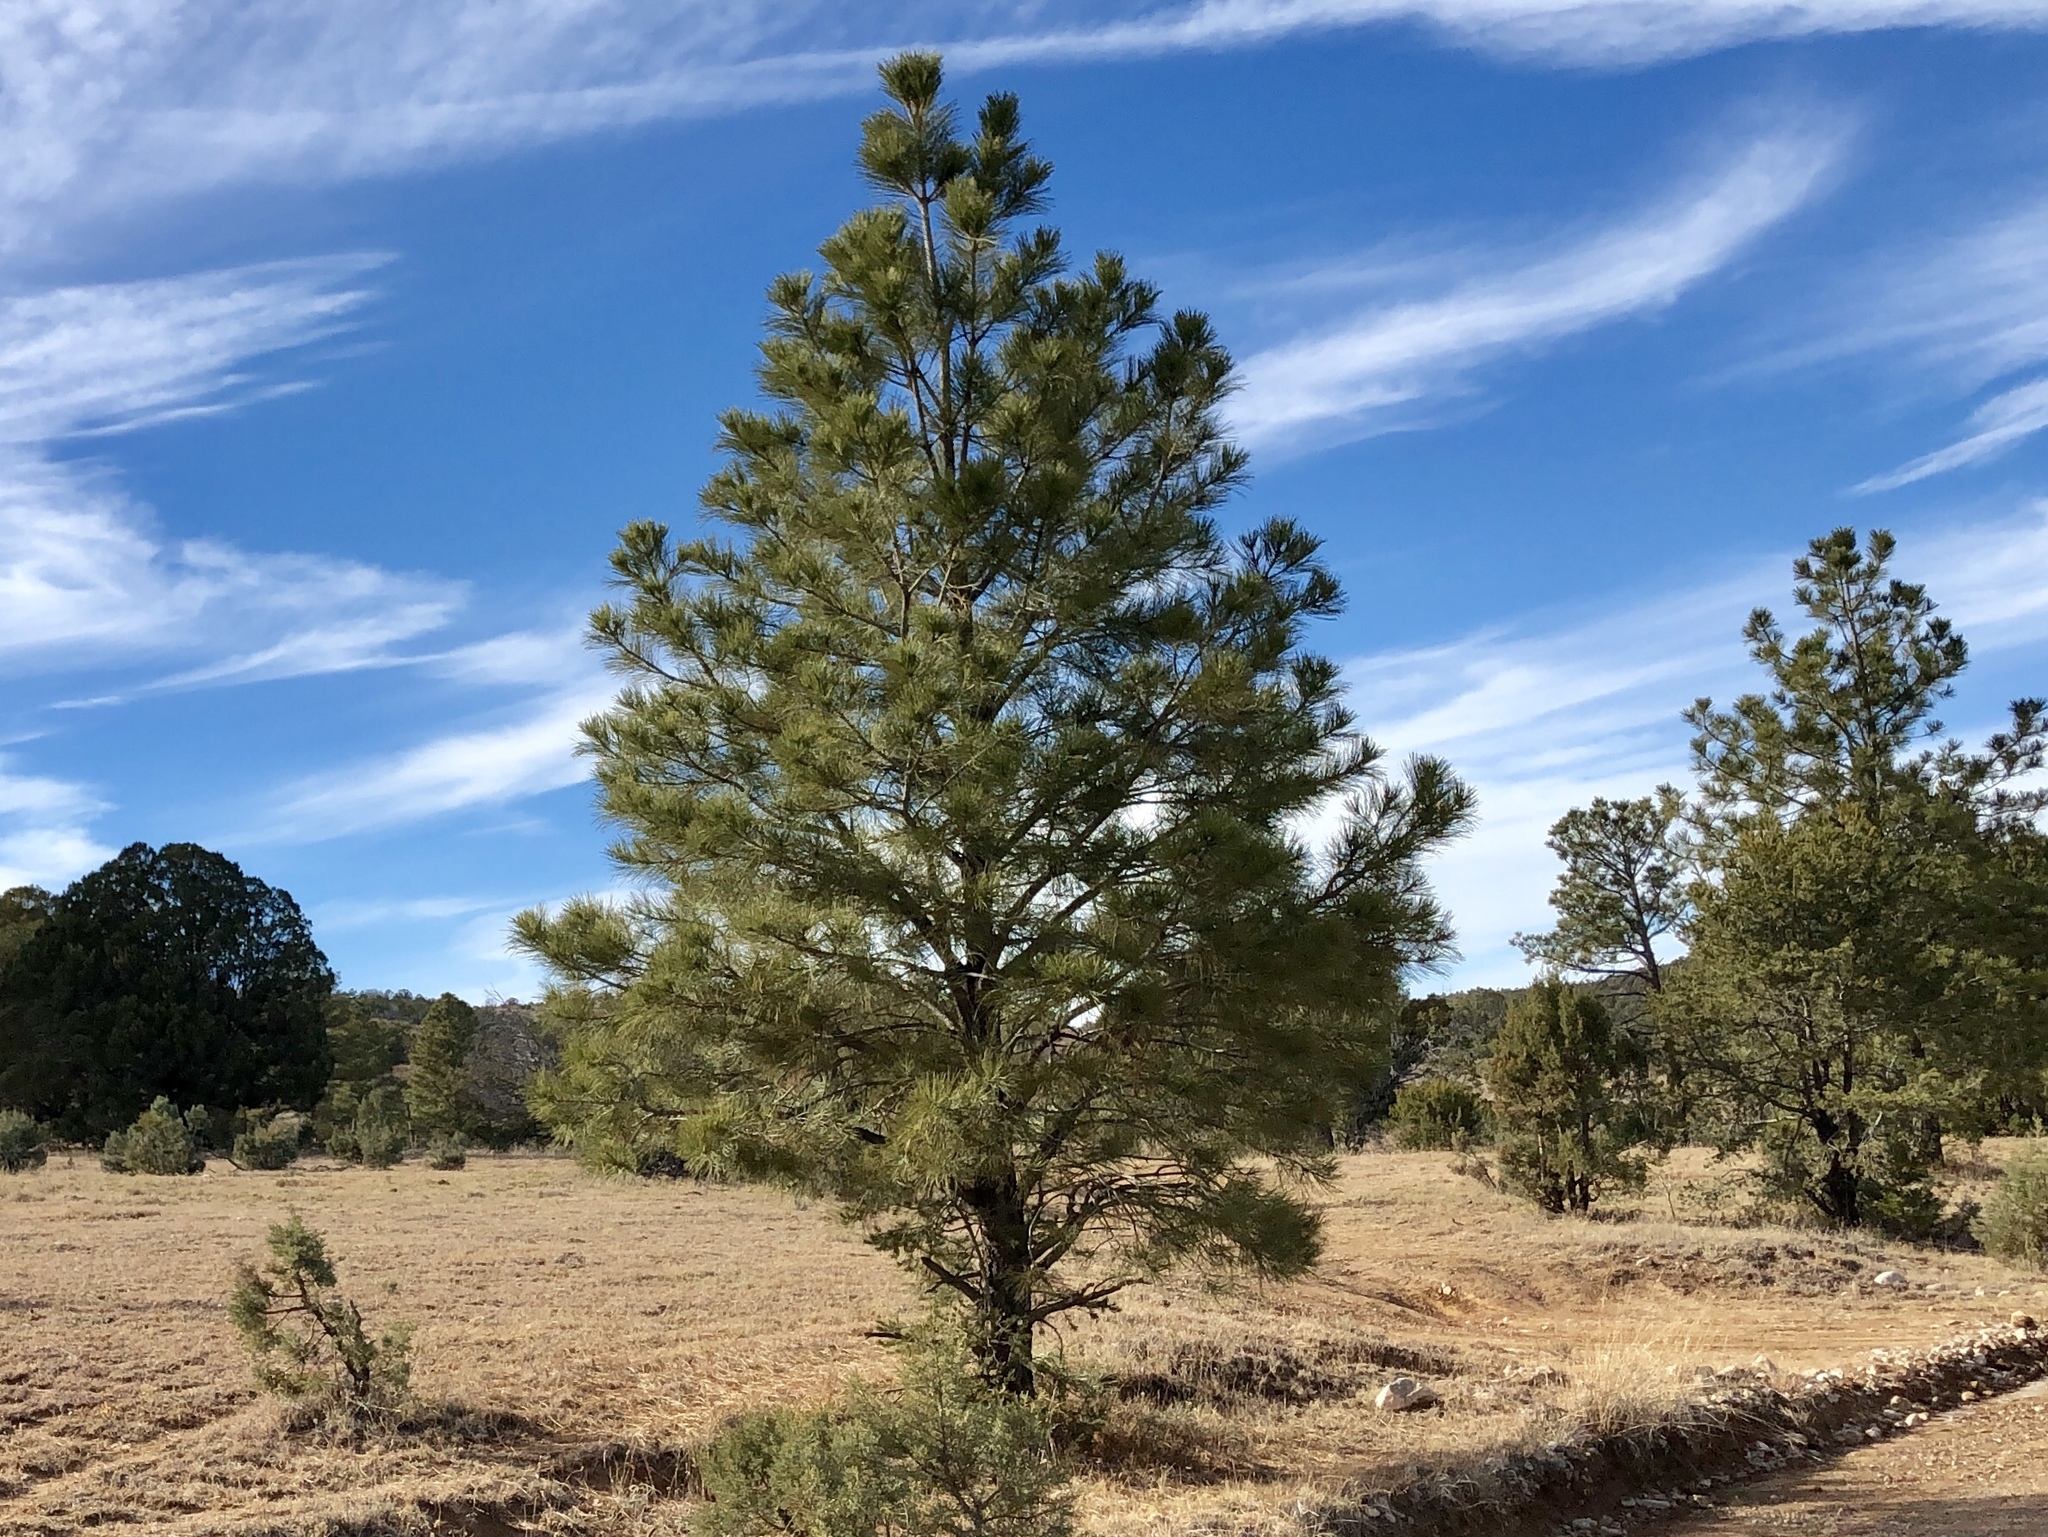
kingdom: Plantae
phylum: Tracheophyta
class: Pinopsida
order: Pinales
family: Pinaceae
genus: Pinus
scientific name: Pinus ponderosa
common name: Western yellow-pine
